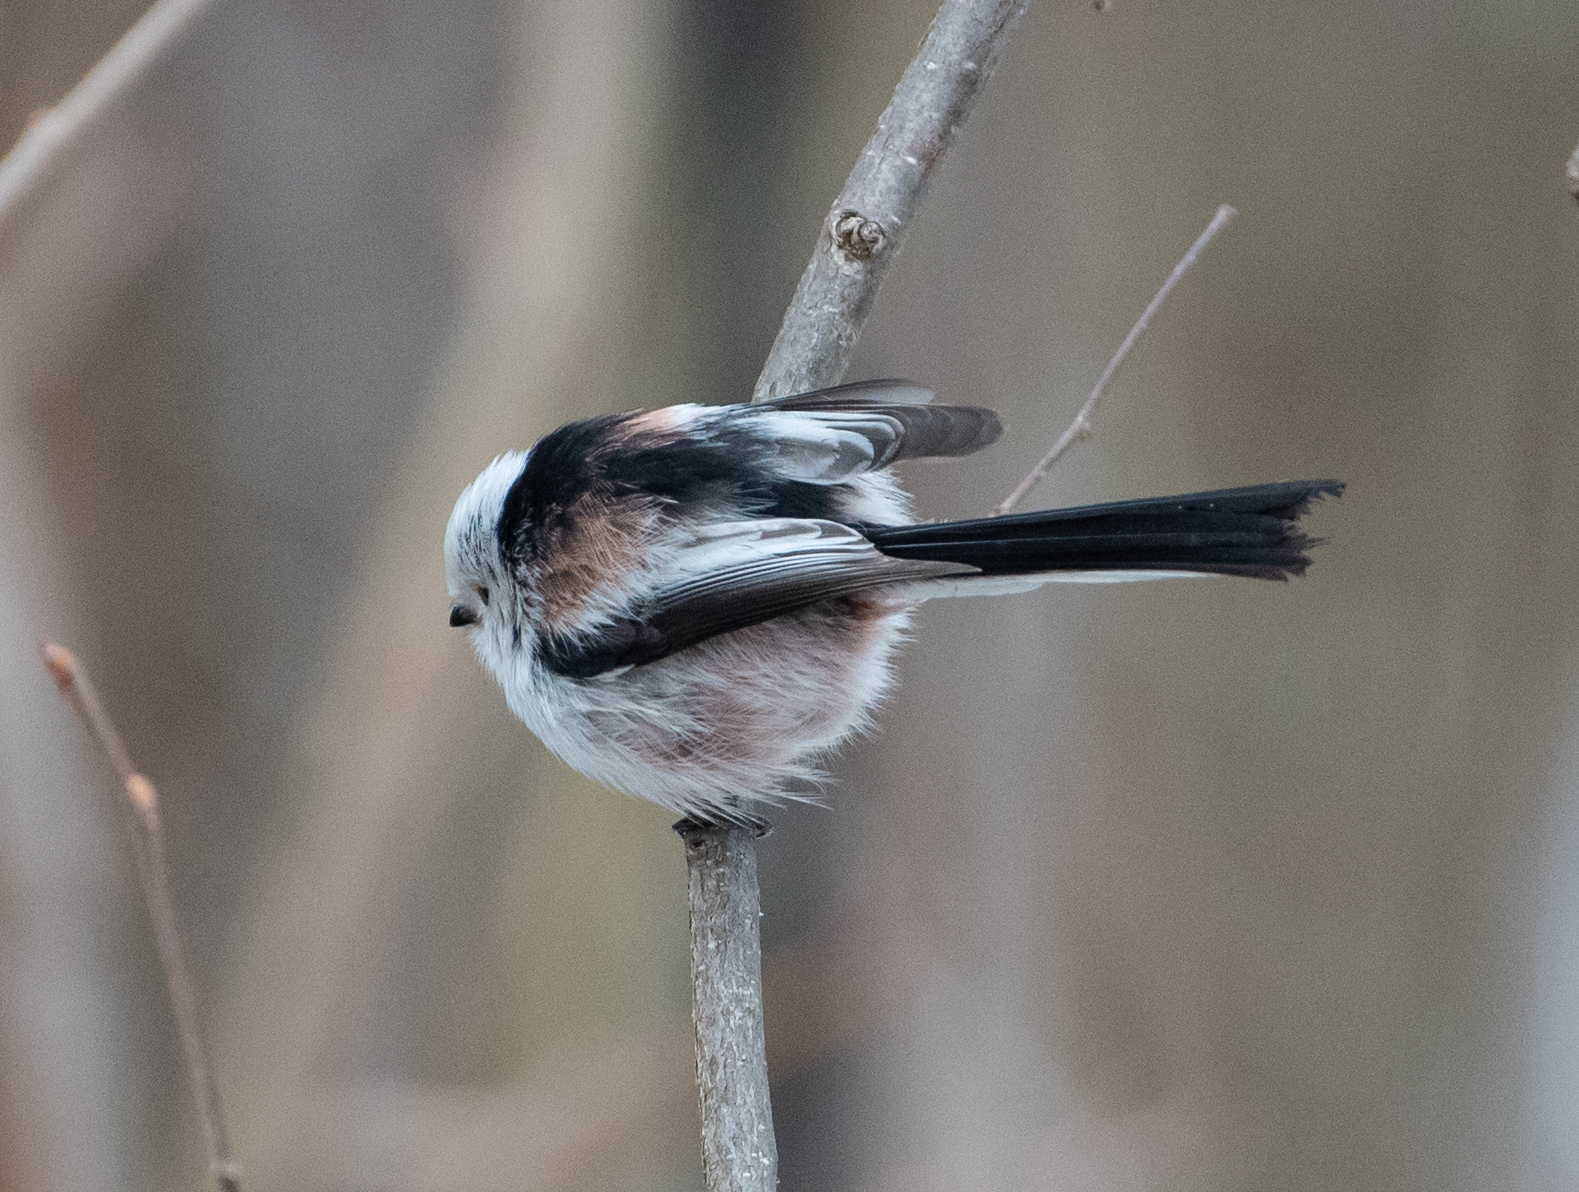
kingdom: Animalia
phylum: Chordata
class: Aves
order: Passeriformes
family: Aegithalidae
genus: Aegithalos
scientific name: Aegithalos caudatus
